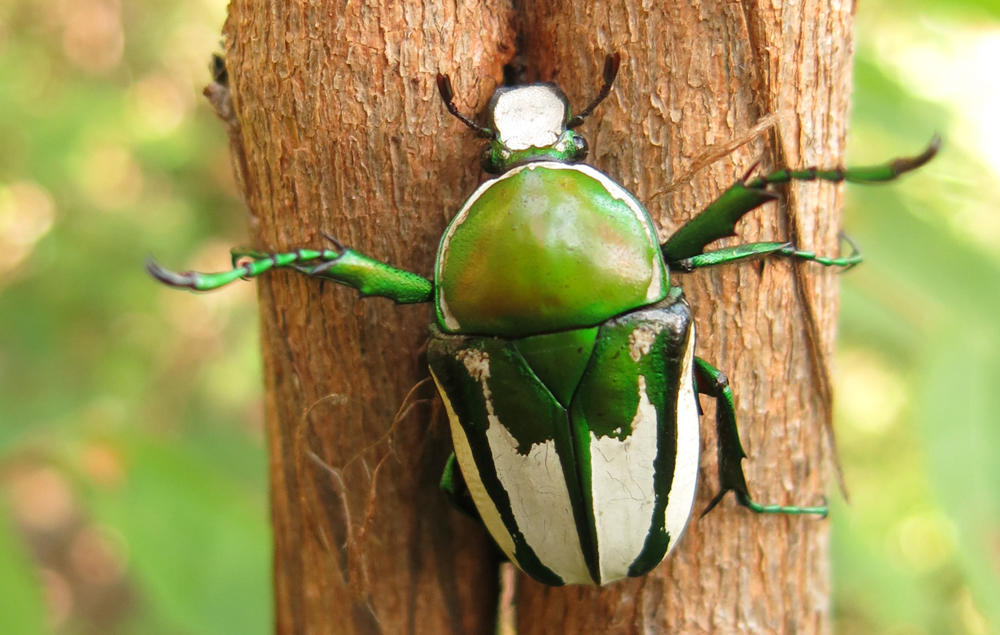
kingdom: Animalia
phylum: Arthropoda
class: Insecta
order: Coleoptera
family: Scarabaeidae
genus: Rhamphorrhina
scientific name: Rhamphorrhina splendens
